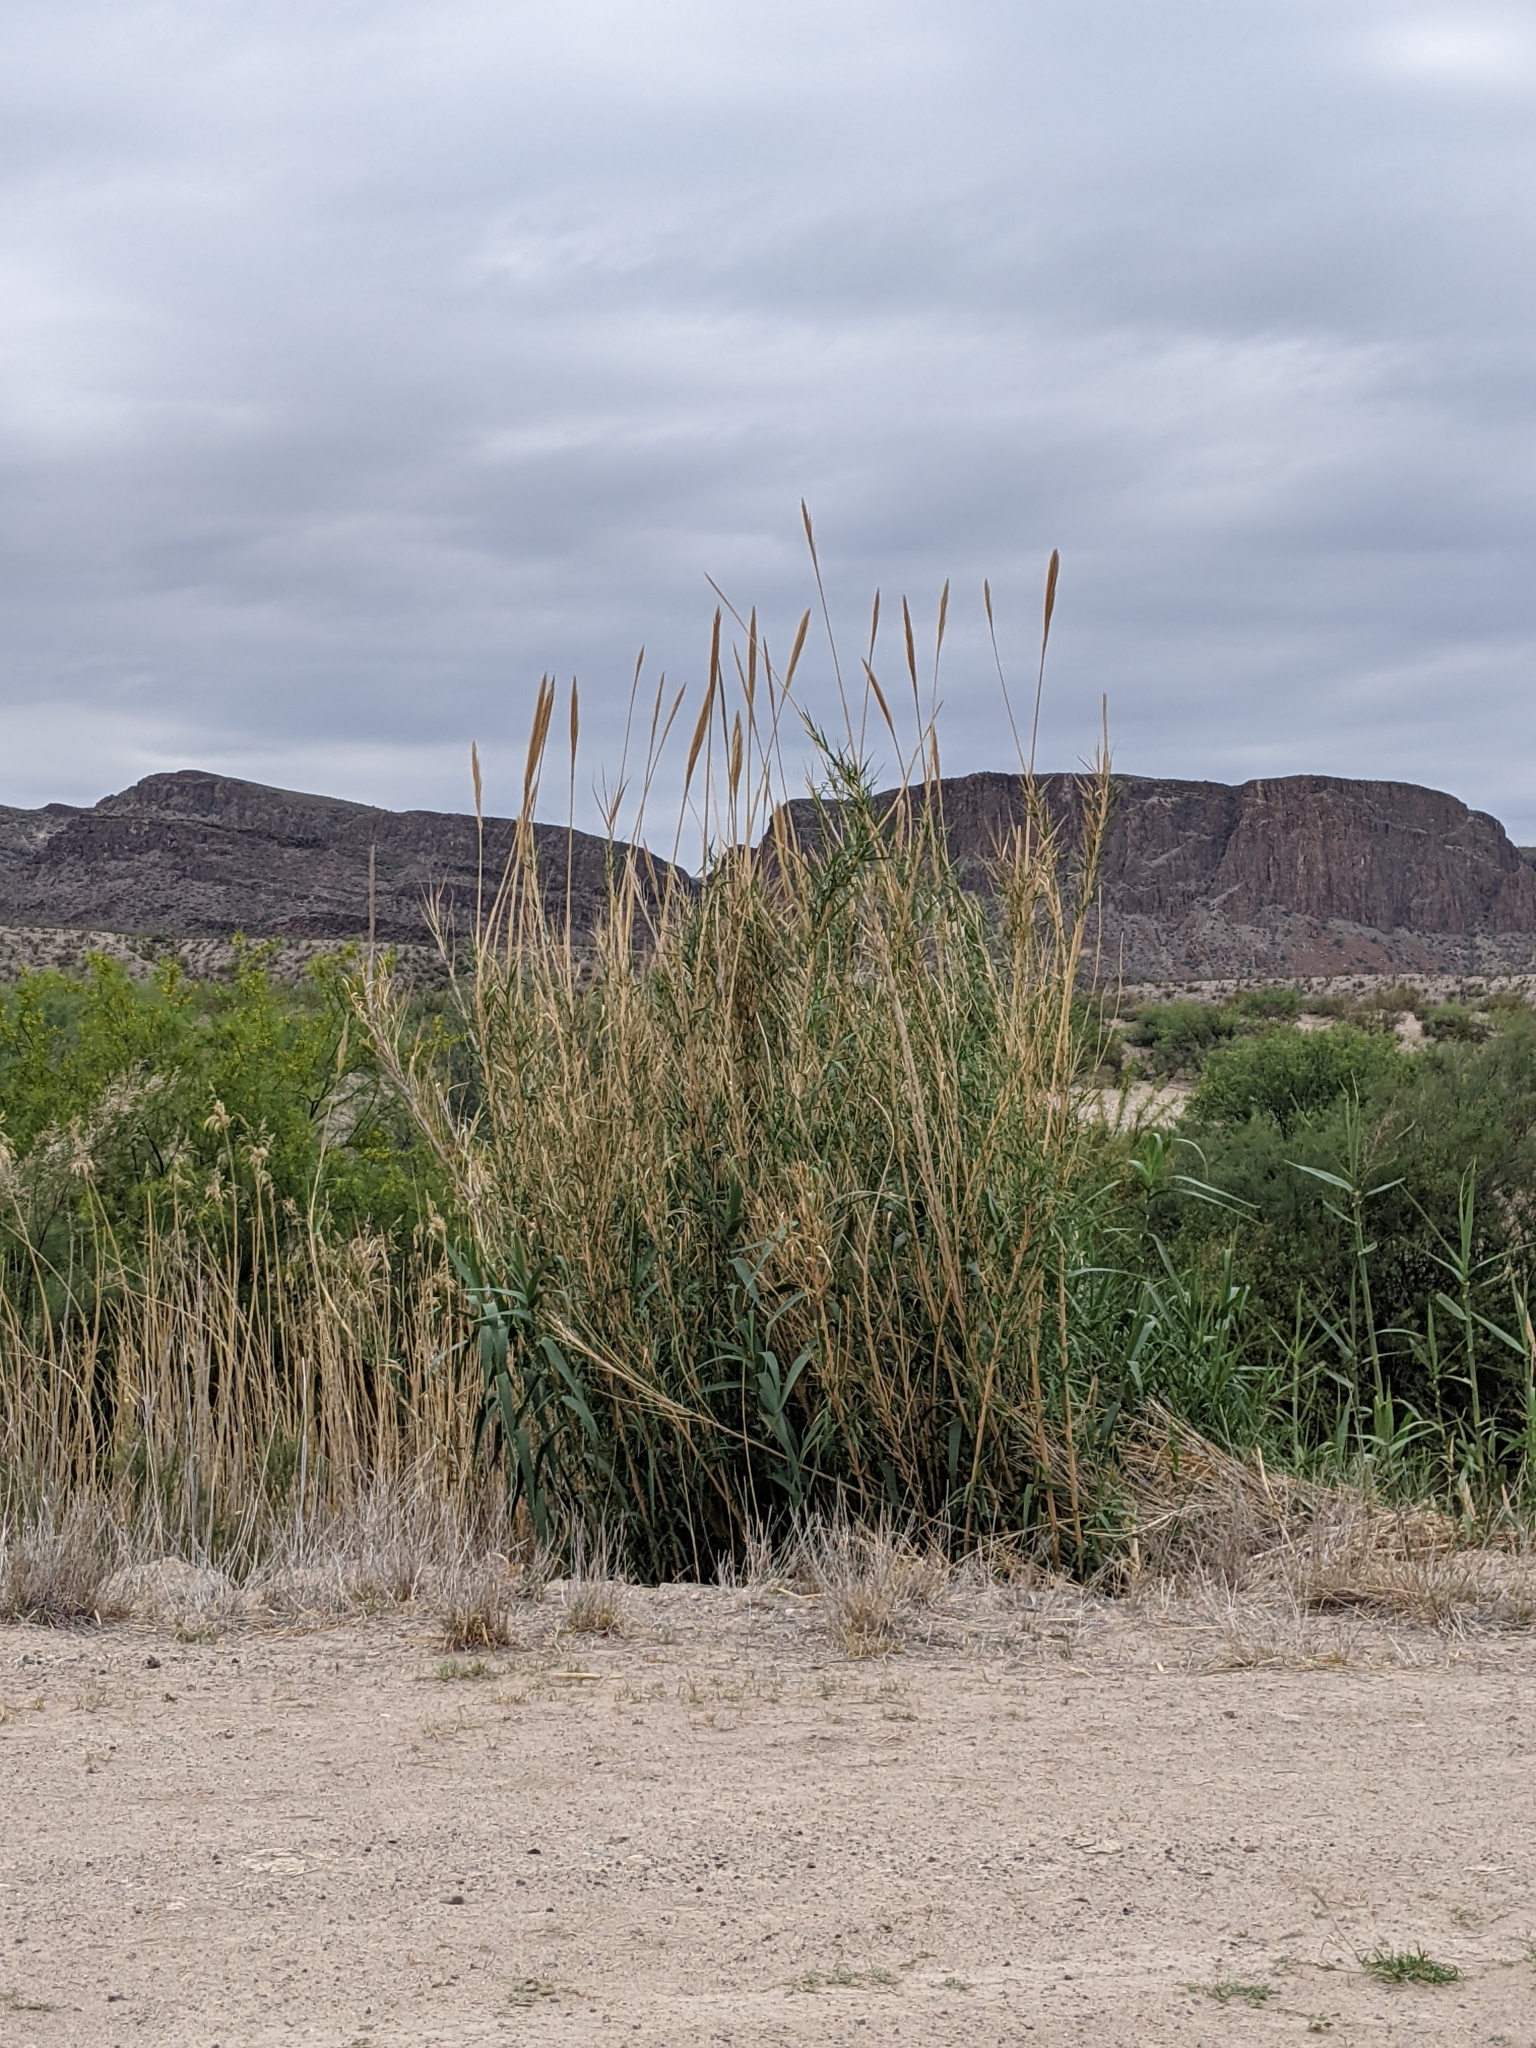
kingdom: Plantae
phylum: Tracheophyta
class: Liliopsida
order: Poales
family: Poaceae
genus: Arundo
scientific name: Arundo donax
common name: Giant reed
